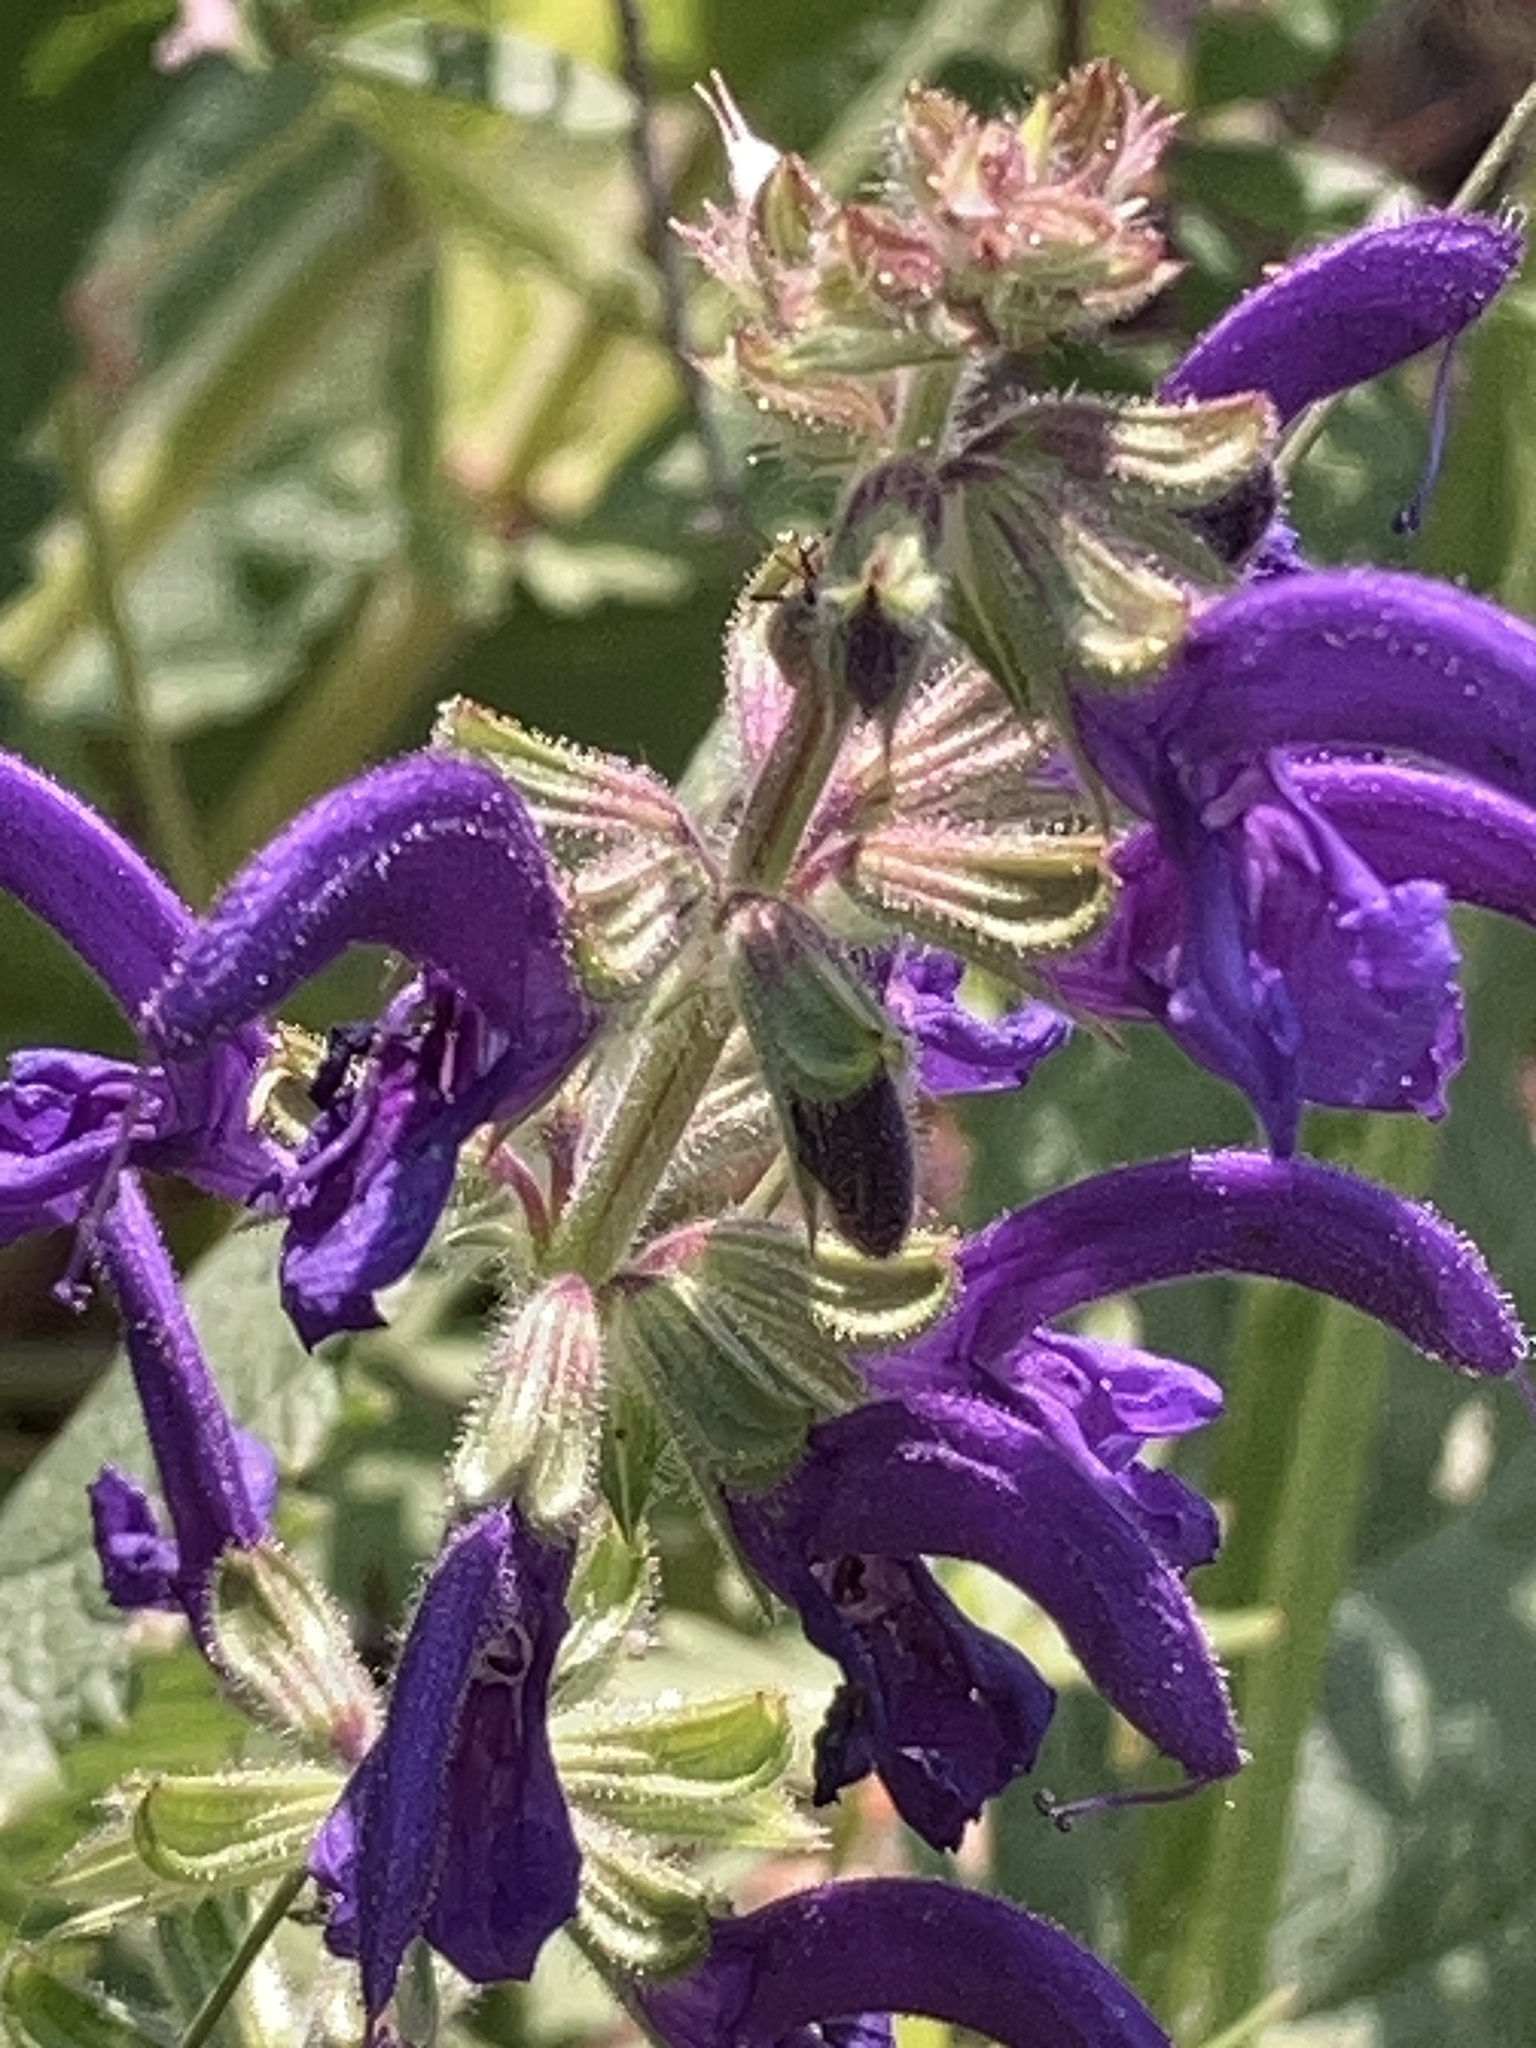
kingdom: Plantae
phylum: Tracheophyta
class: Magnoliopsida
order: Lamiales
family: Lamiaceae
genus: Salvia
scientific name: Salvia pratensis
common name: Meadow sage
